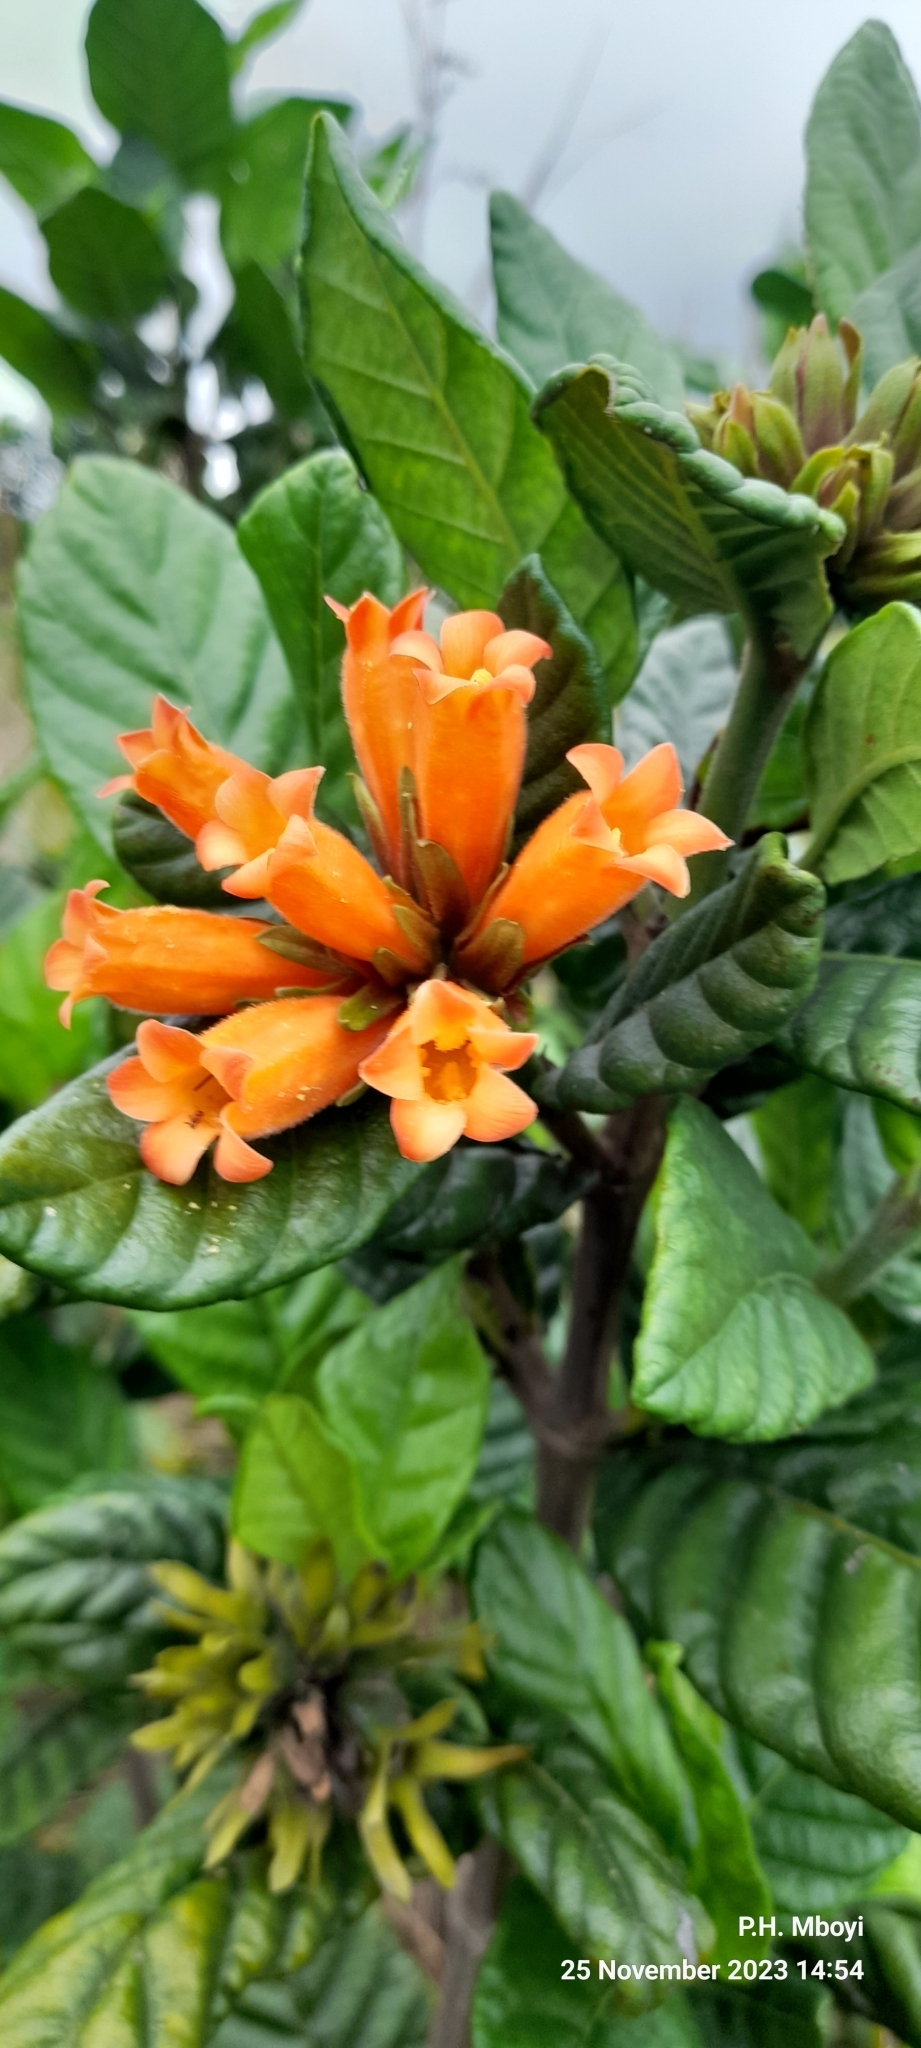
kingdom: Plantae
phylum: Tracheophyta
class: Magnoliopsida
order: Gentianales
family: Rubiaceae
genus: Burchellia
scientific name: Burchellia bubalina
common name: Wild pomegranate
